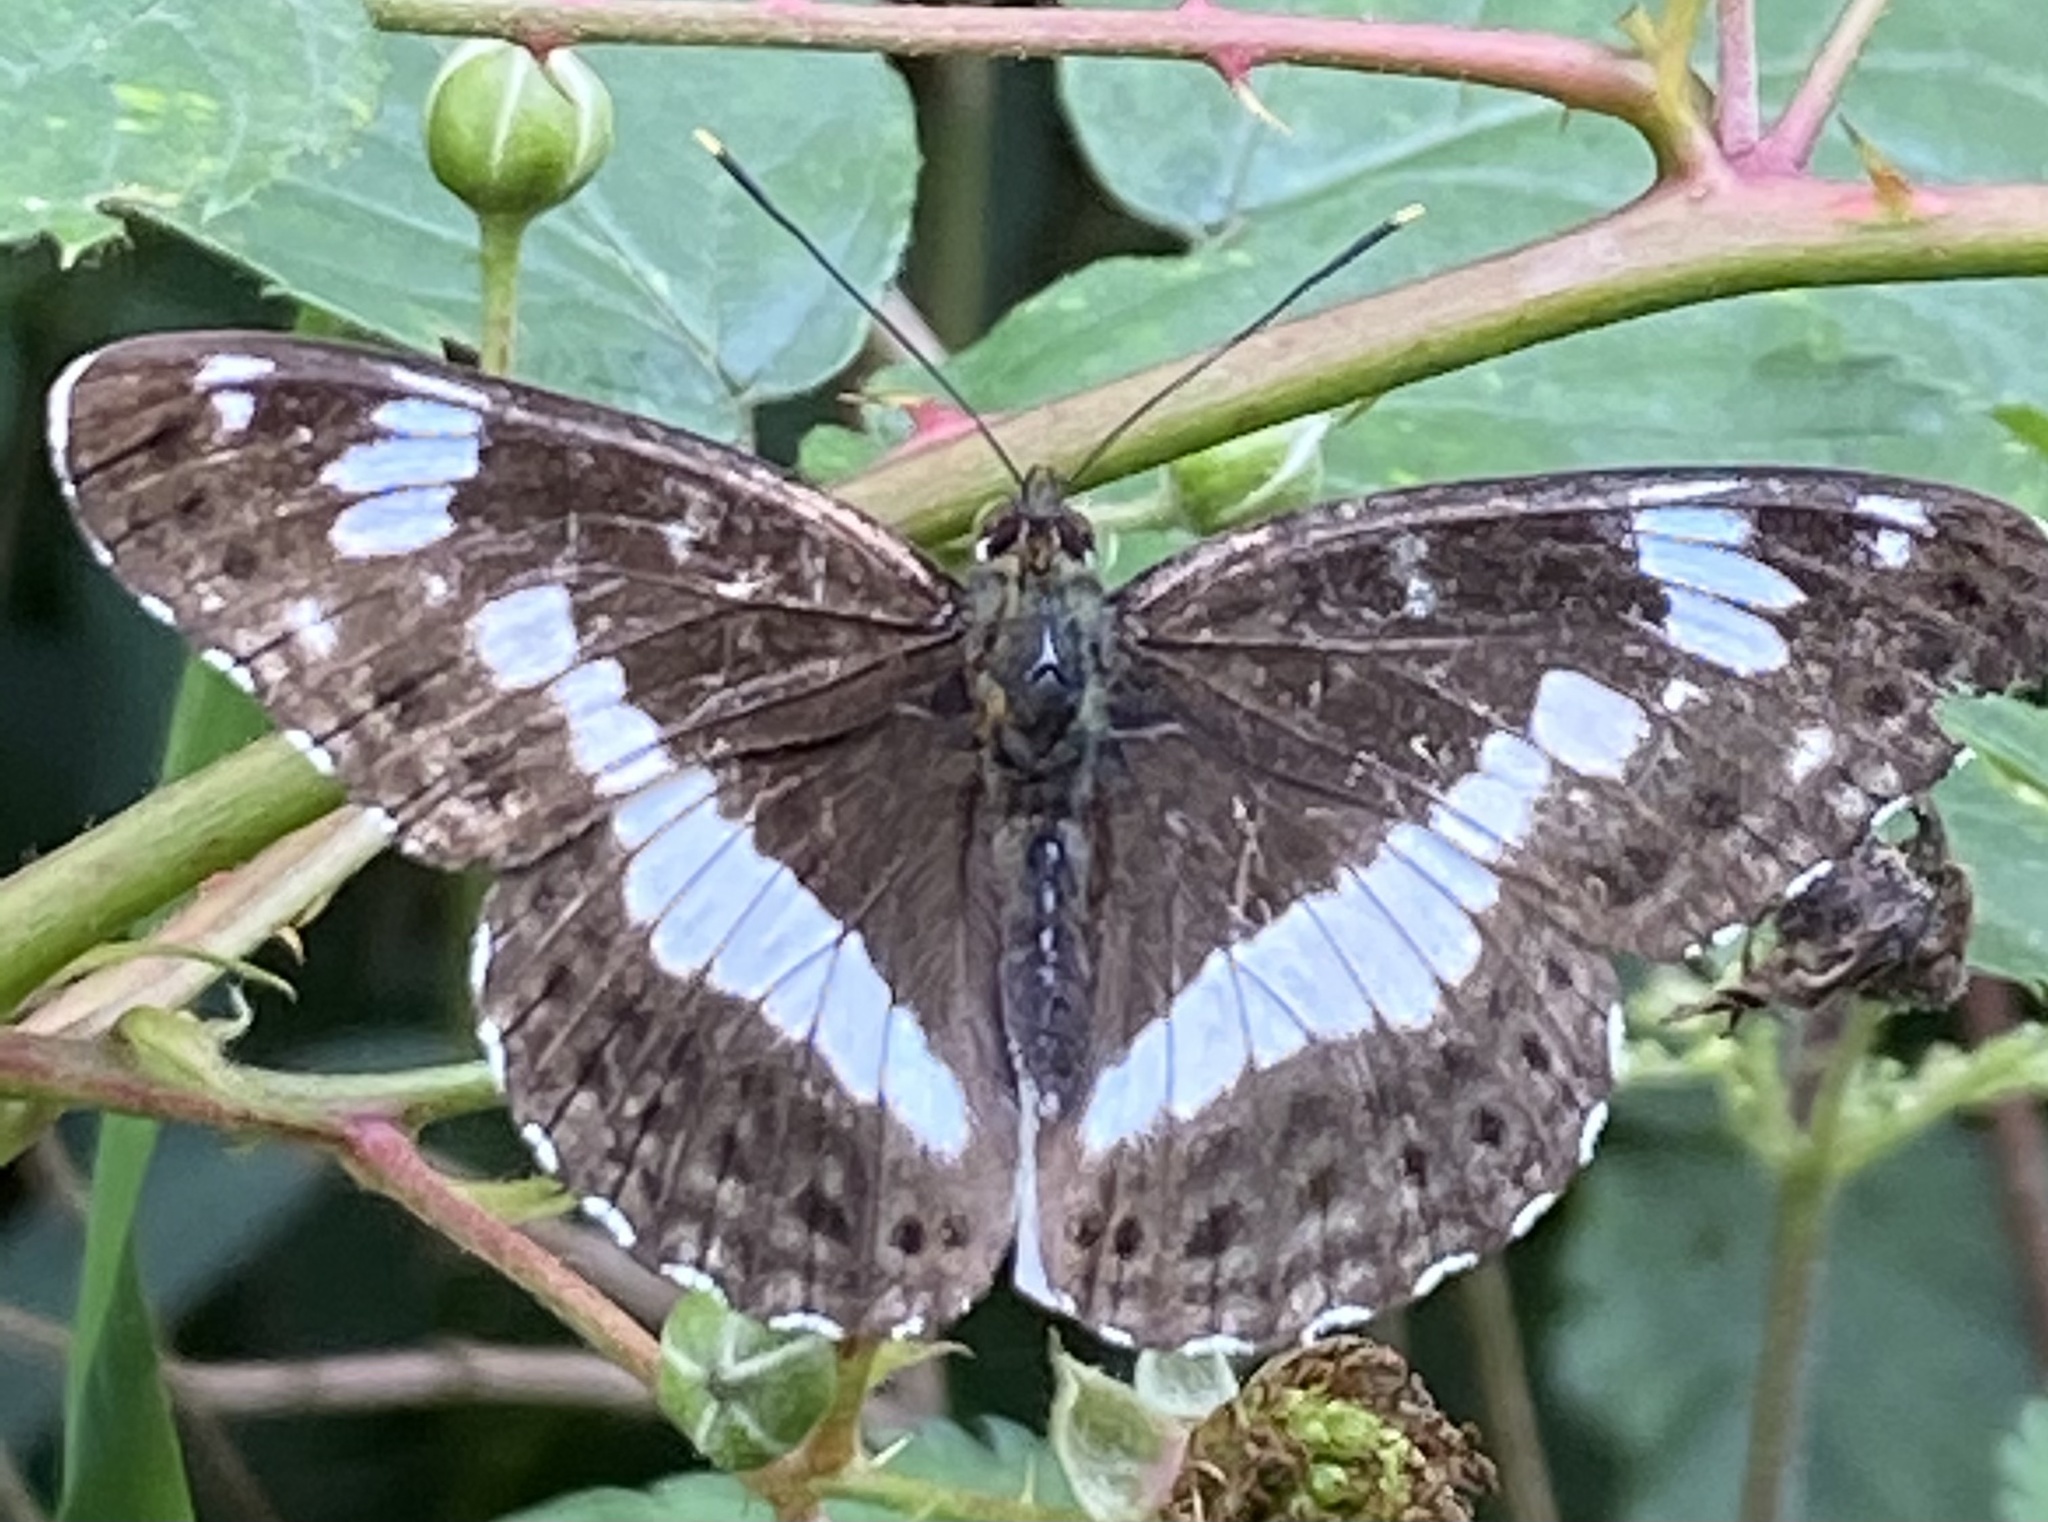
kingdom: Animalia
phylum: Arthropoda
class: Insecta
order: Lepidoptera
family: Nymphalidae
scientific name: Nymphalidae
